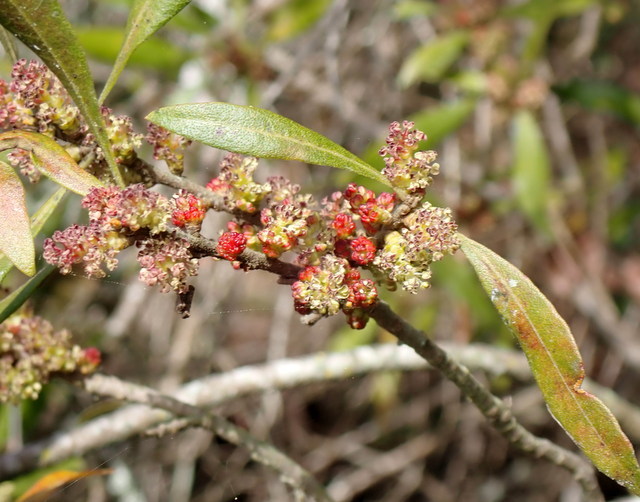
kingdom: Plantae
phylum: Tracheophyta
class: Magnoliopsida
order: Fagales
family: Myricaceae
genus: Morella
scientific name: Morella cerifera
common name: Wax myrtle
